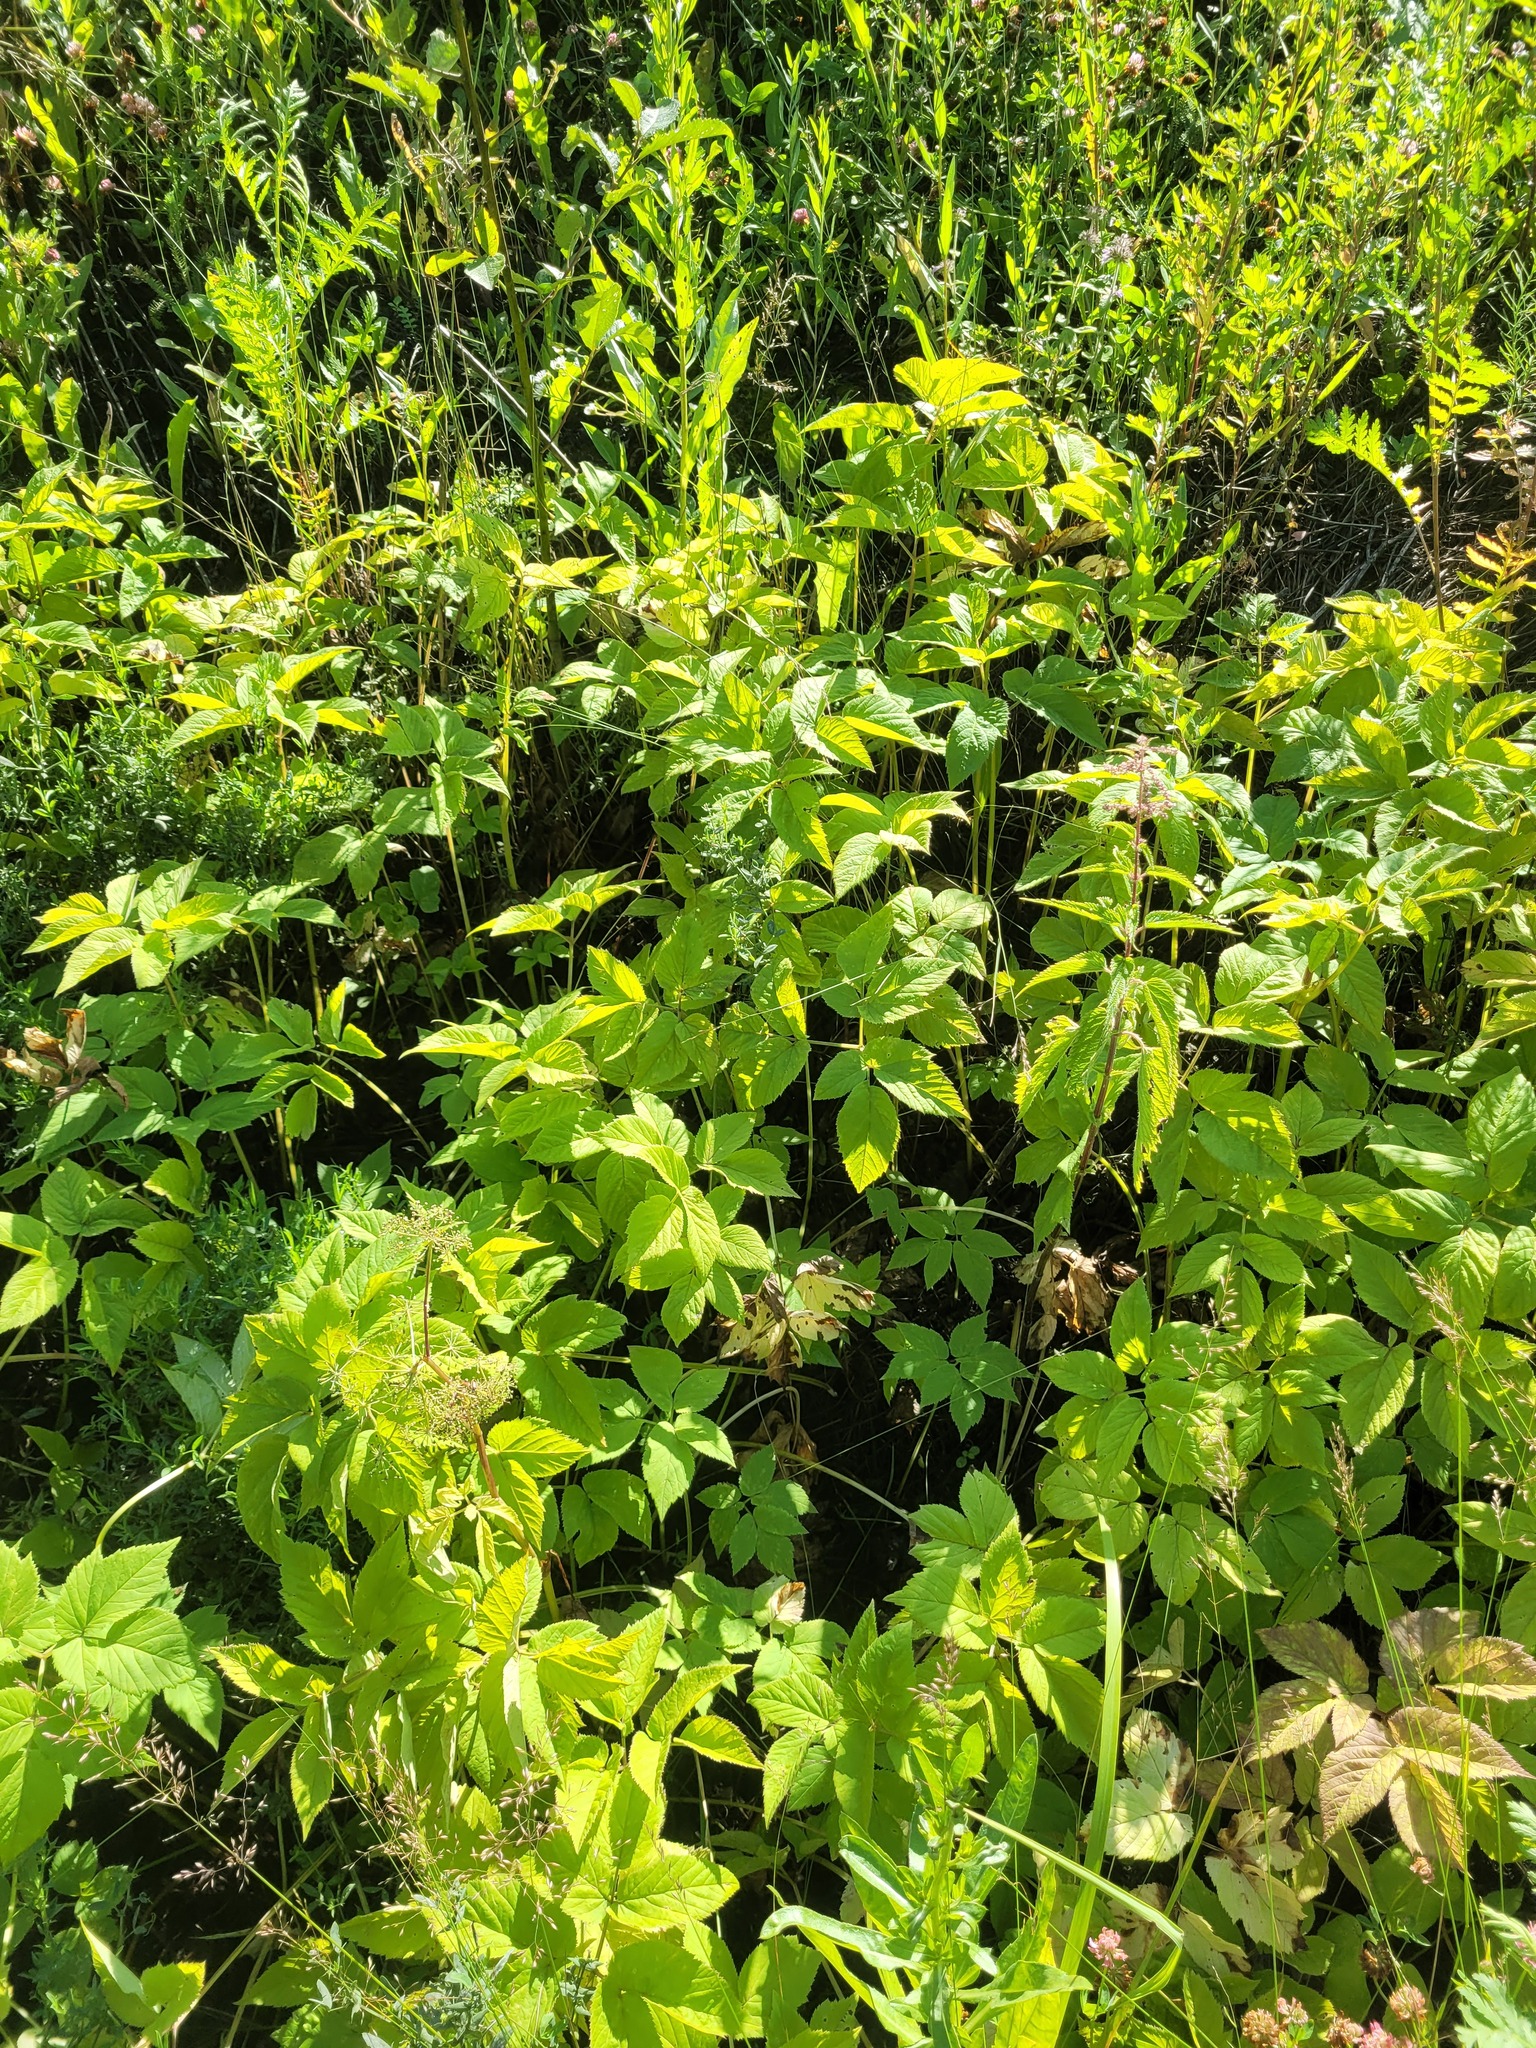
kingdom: Plantae
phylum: Tracheophyta
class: Magnoliopsida
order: Apiales
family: Apiaceae
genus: Aegopodium
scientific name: Aegopodium podagraria
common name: Ground-elder
